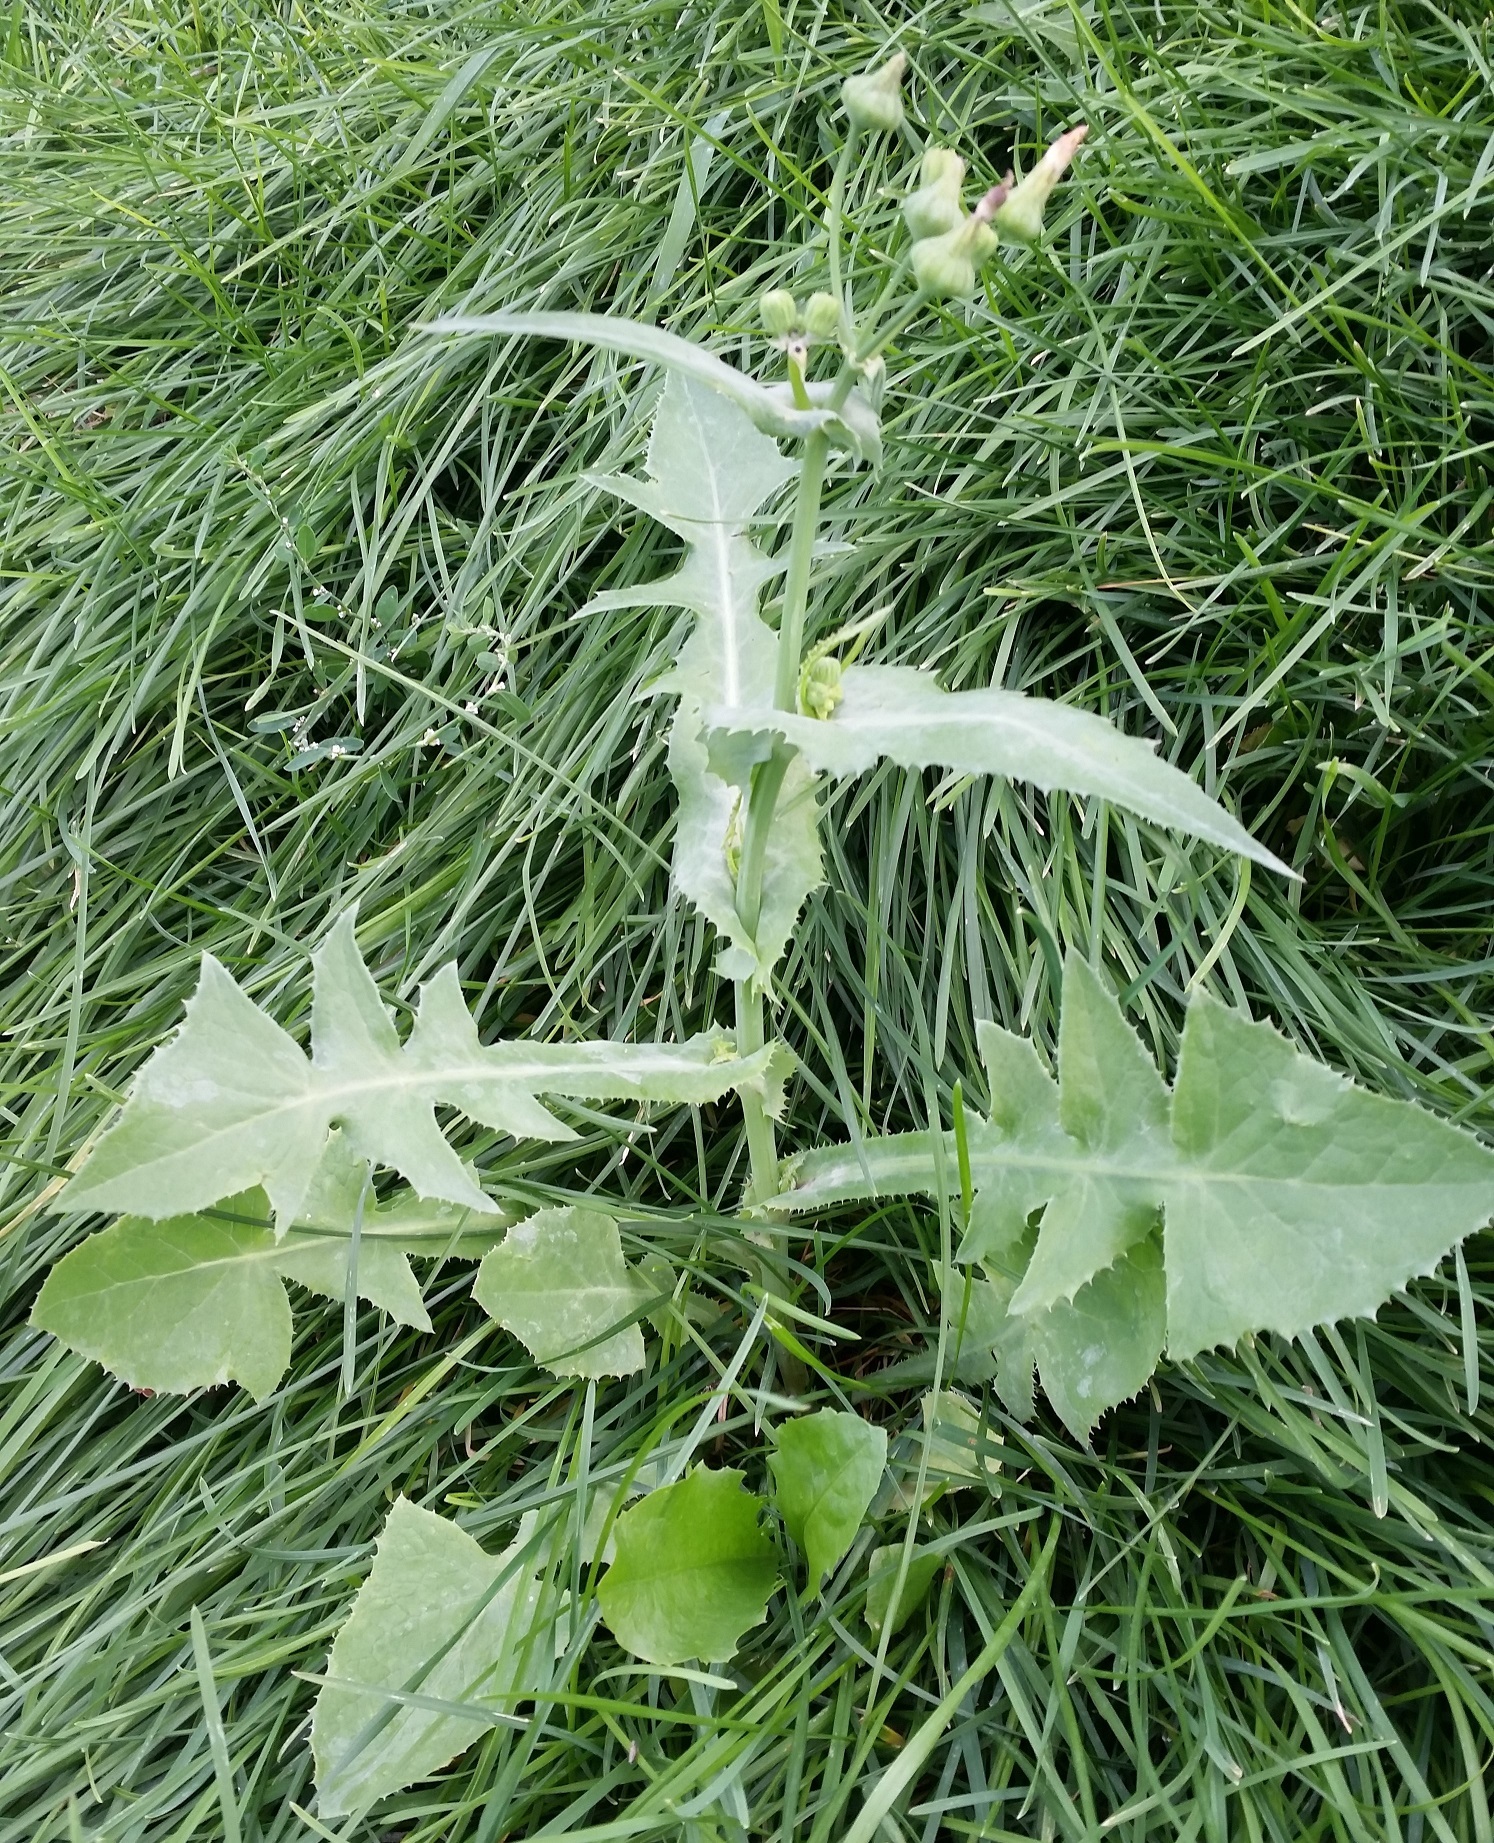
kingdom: Plantae
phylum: Tracheophyta
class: Magnoliopsida
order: Asterales
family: Asteraceae
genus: Sonchus
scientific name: Sonchus asper
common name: Prickly sow-thistle
